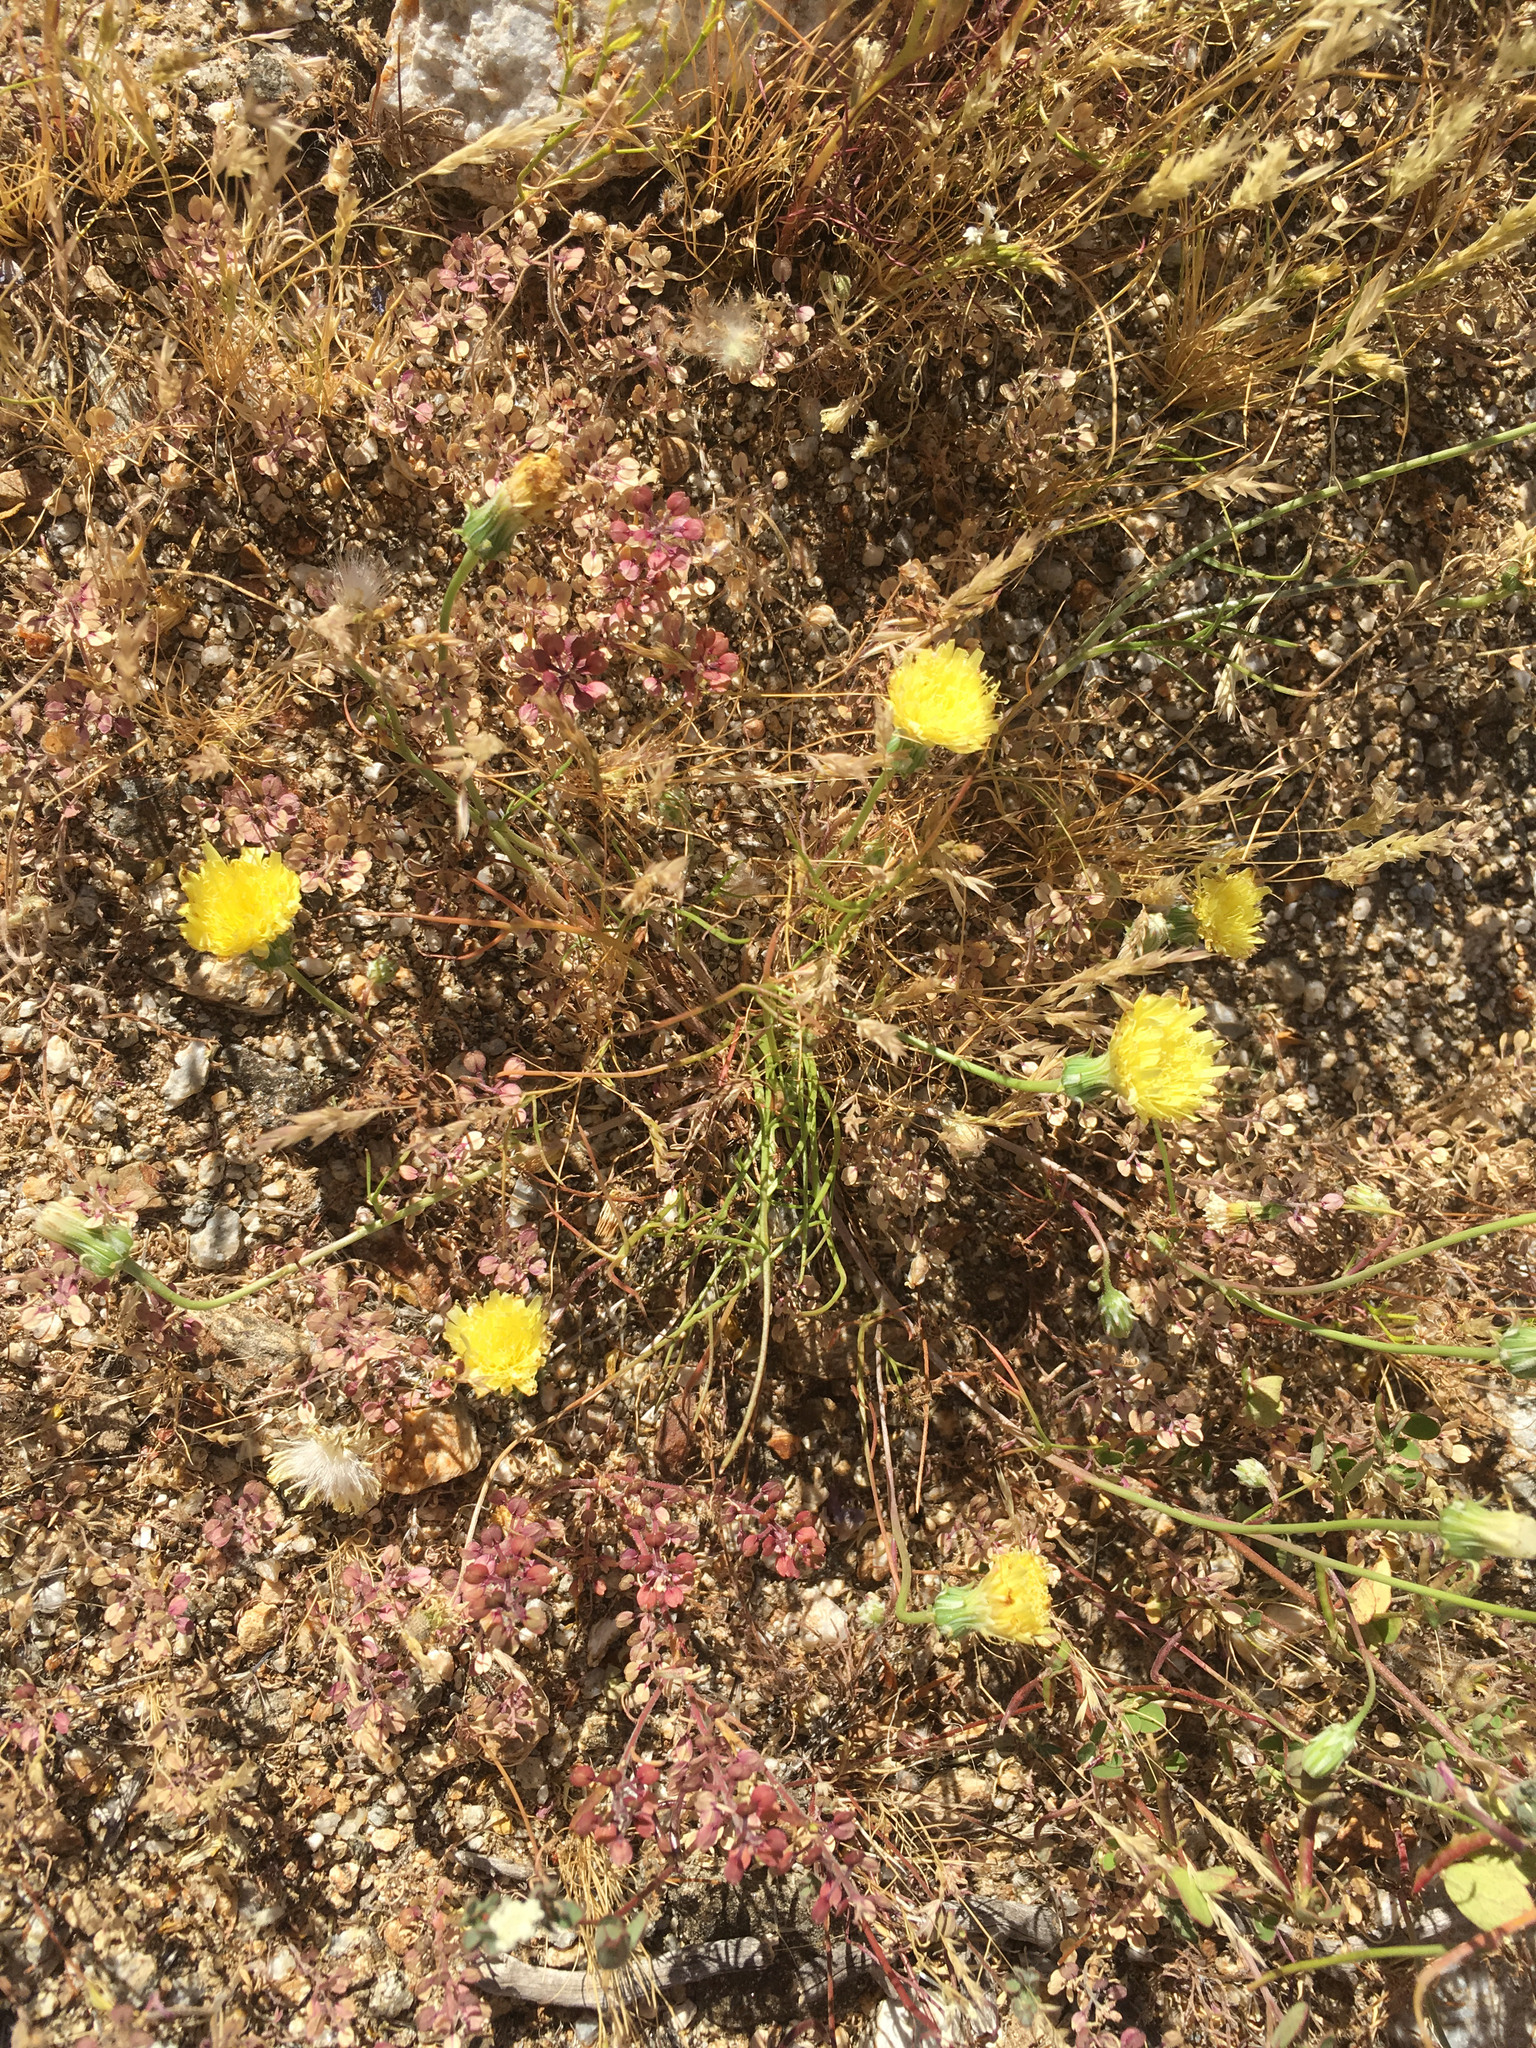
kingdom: Plantae
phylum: Tracheophyta
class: Magnoliopsida
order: Asterales
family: Asteraceae
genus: Malacothrix
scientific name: Malacothrix glabrata
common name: Smooth desert-dandelion
